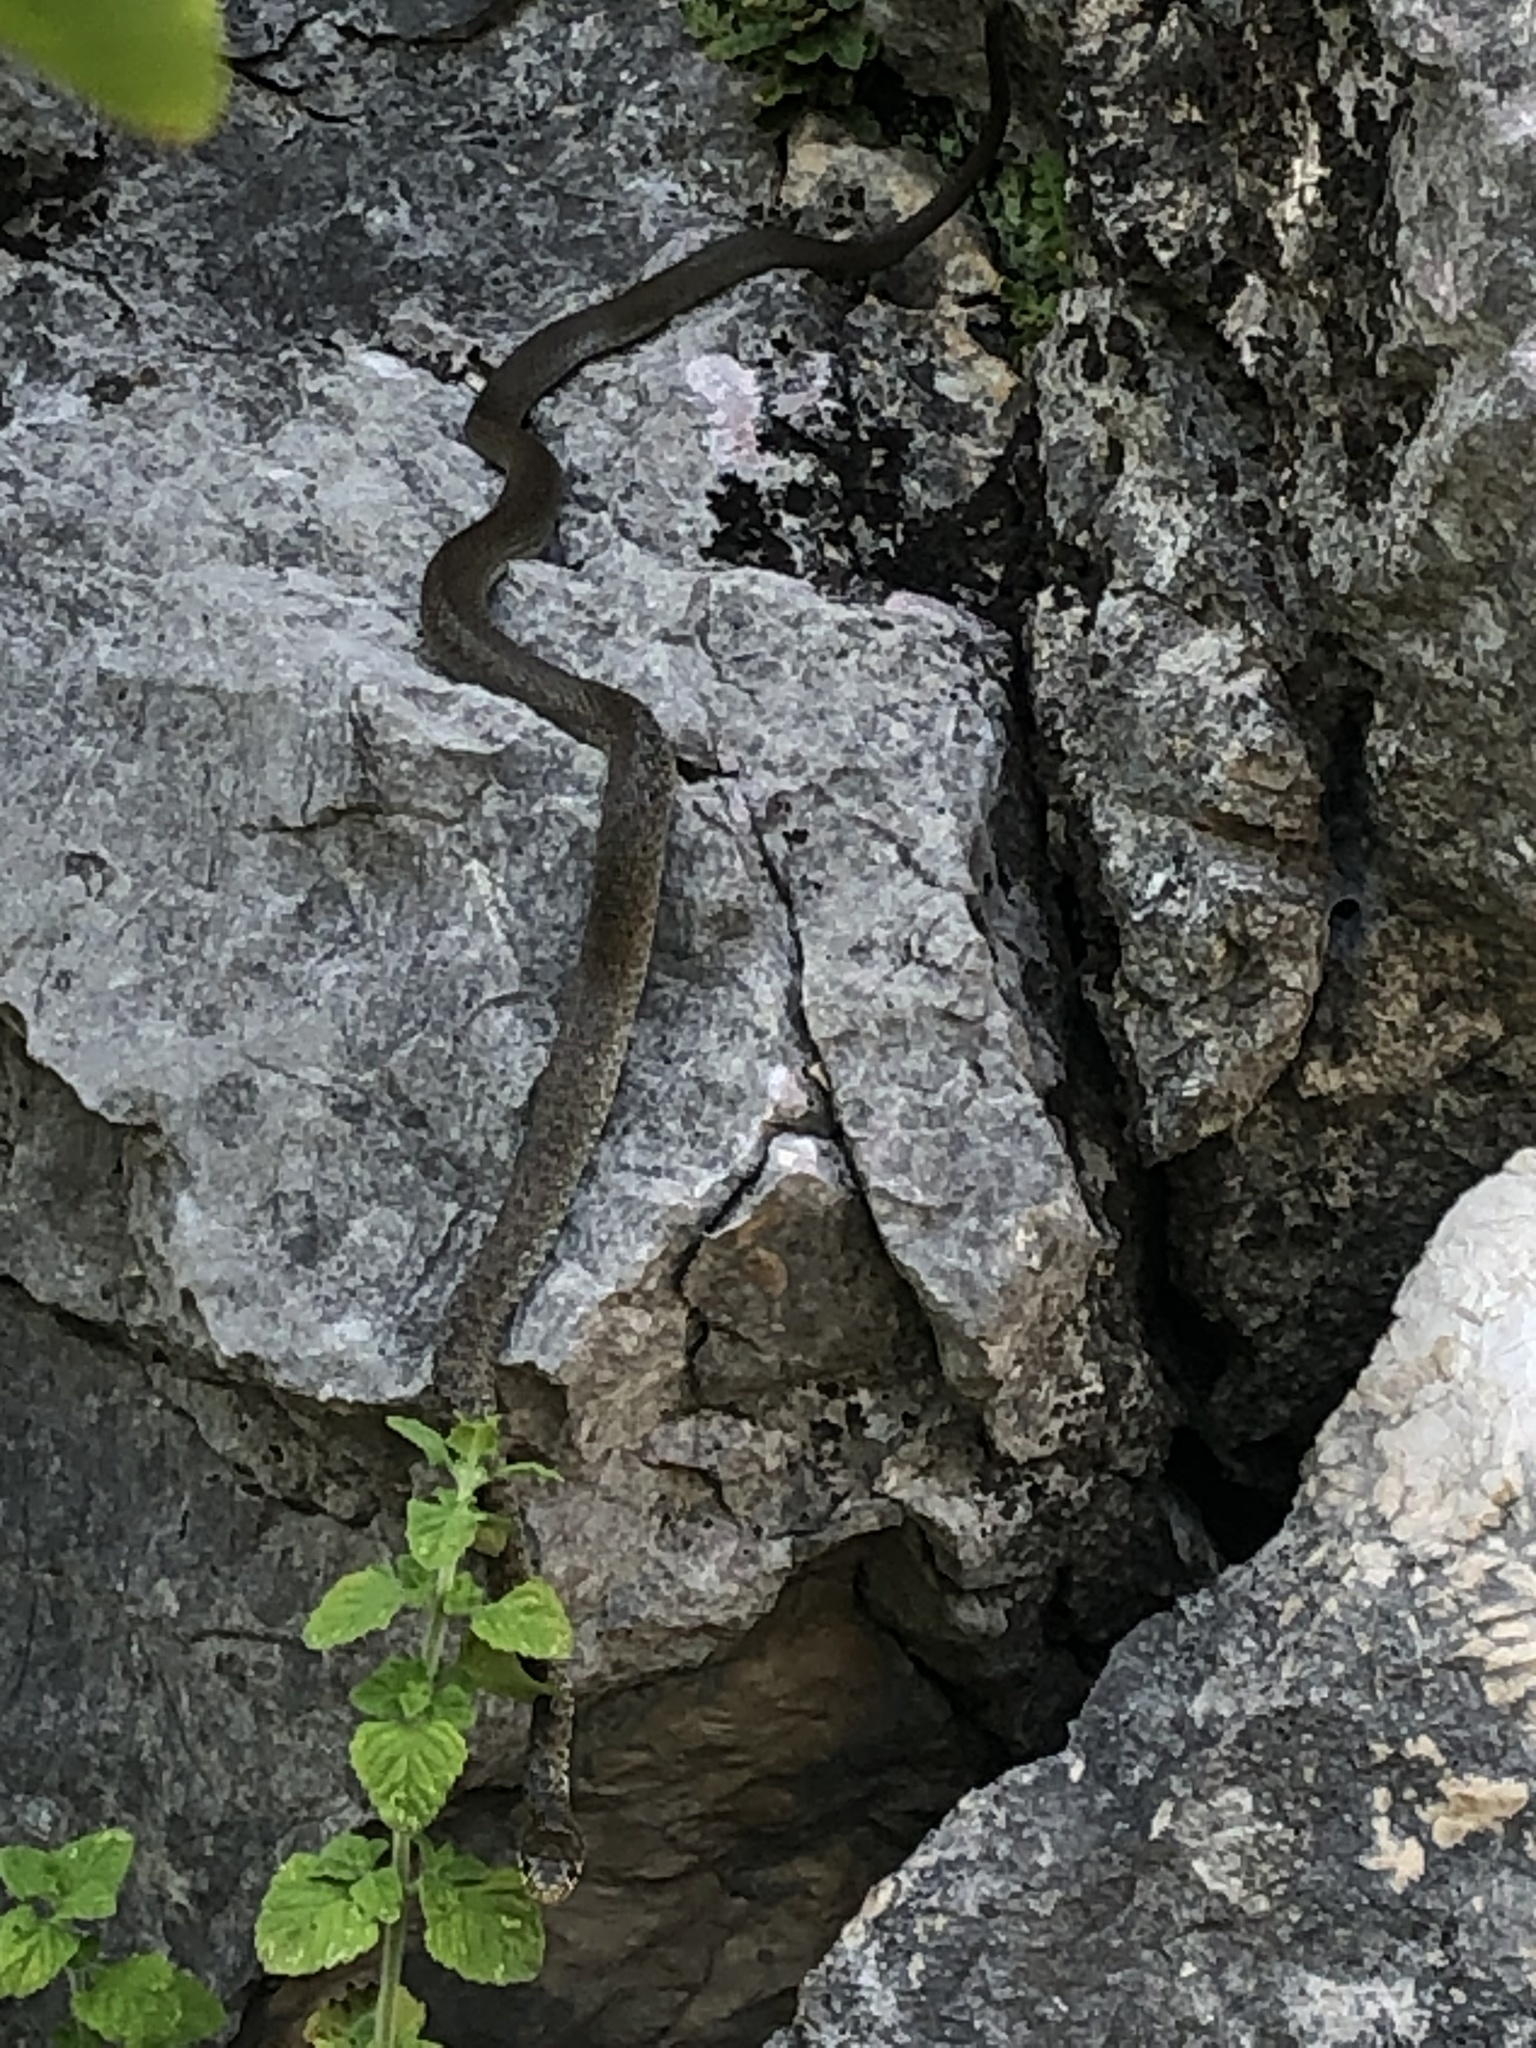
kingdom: Animalia
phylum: Chordata
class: Squamata
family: Colubridae
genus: Hierophis
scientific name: Hierophis gemonensis
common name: Balkan whip snake
